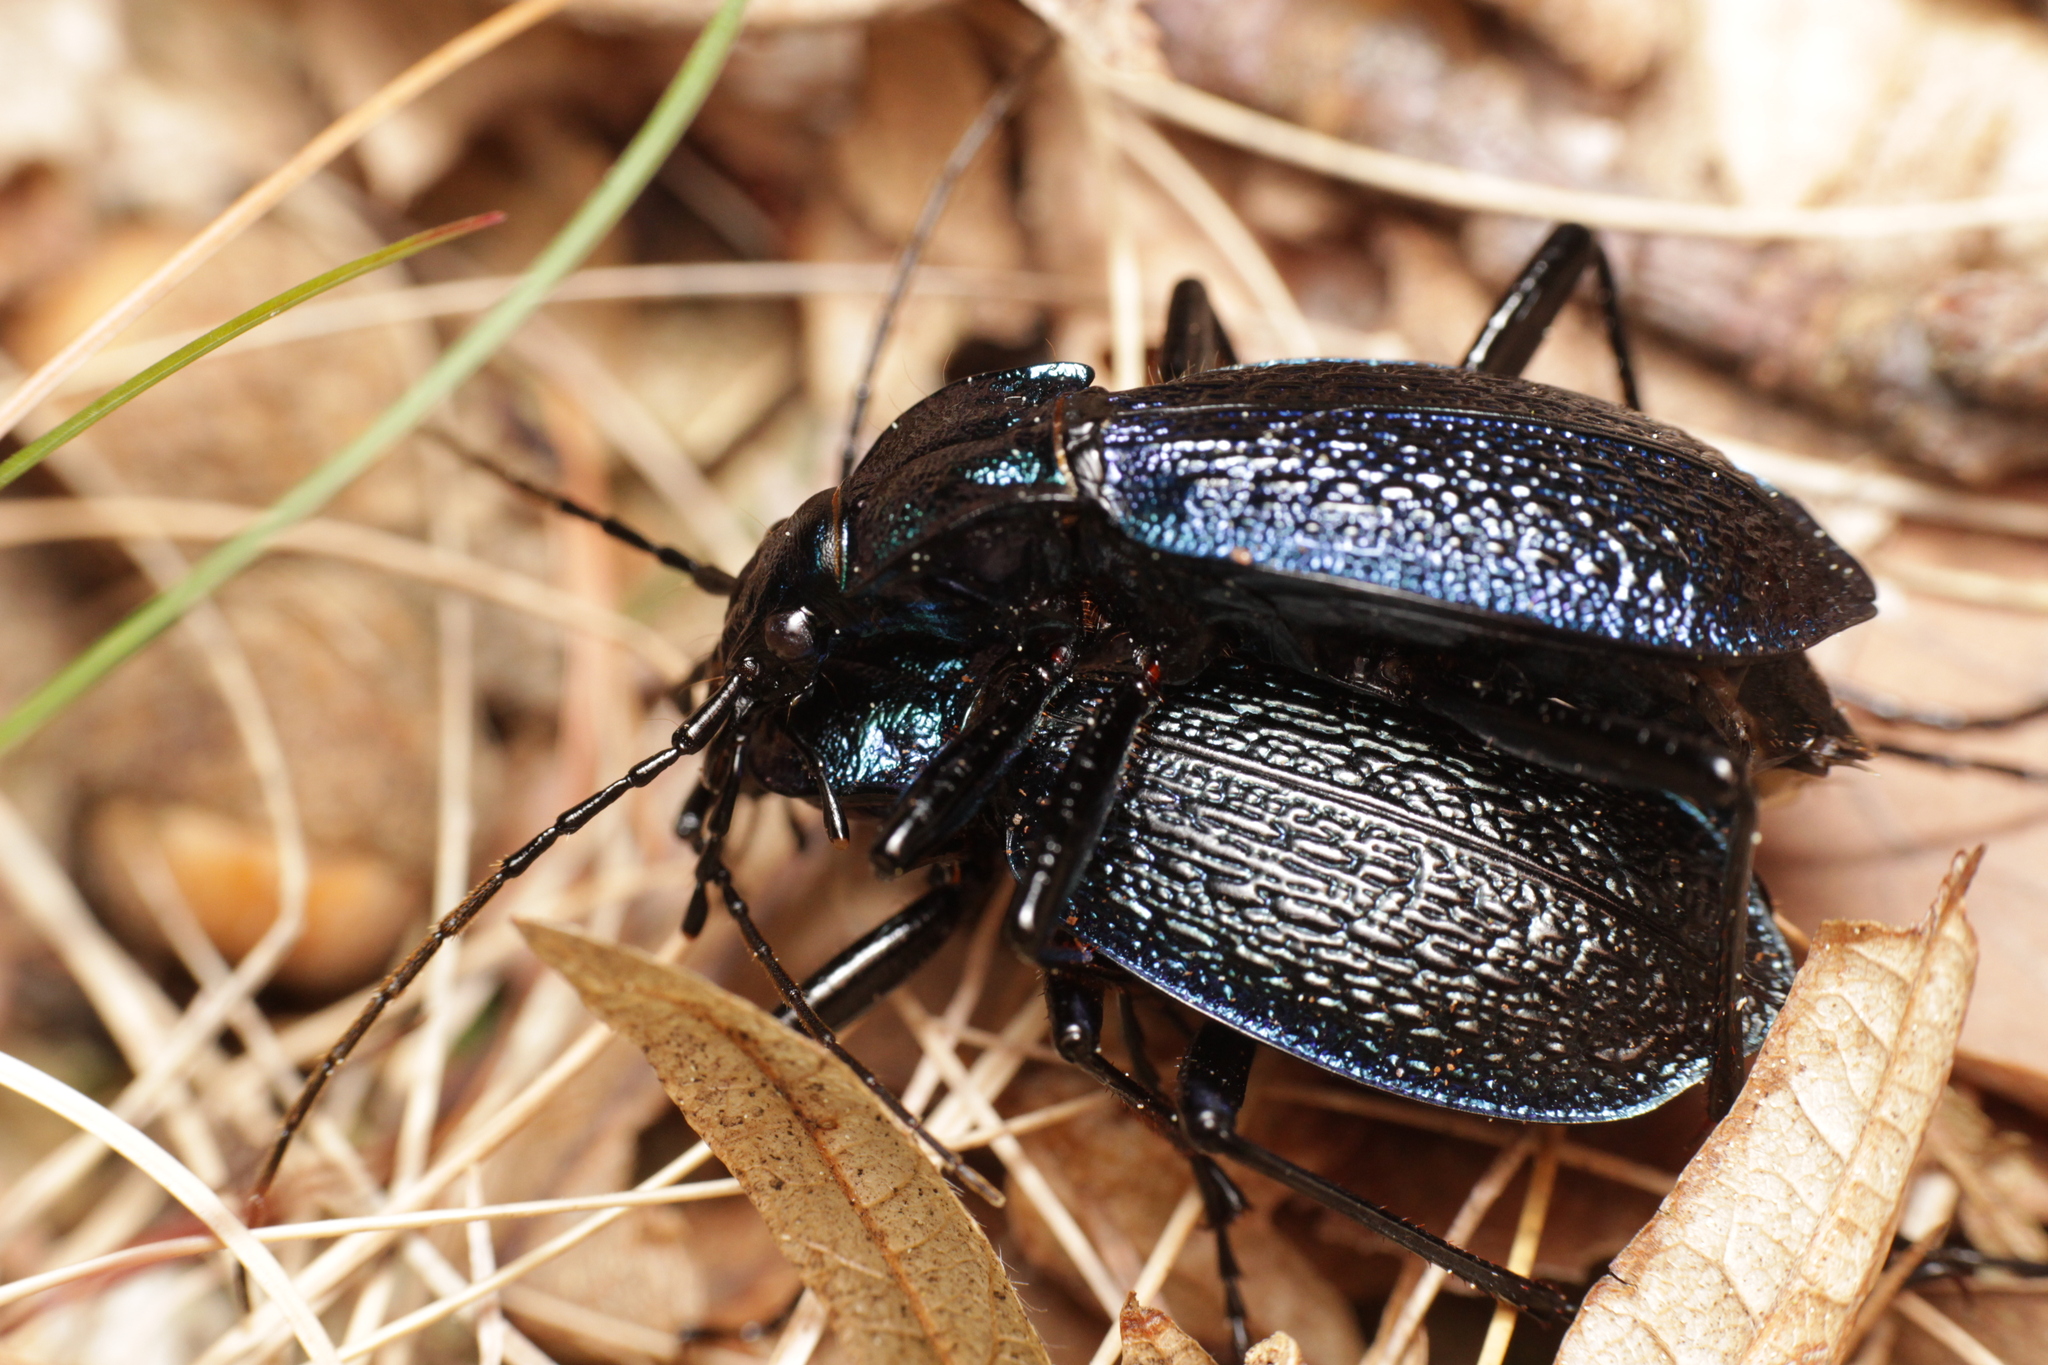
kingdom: Animalia
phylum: Arthropoda
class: Insecta
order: Coleoptera
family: Carabidae
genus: Carabus
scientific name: Carabus intricatus
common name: Blue ground beetle
